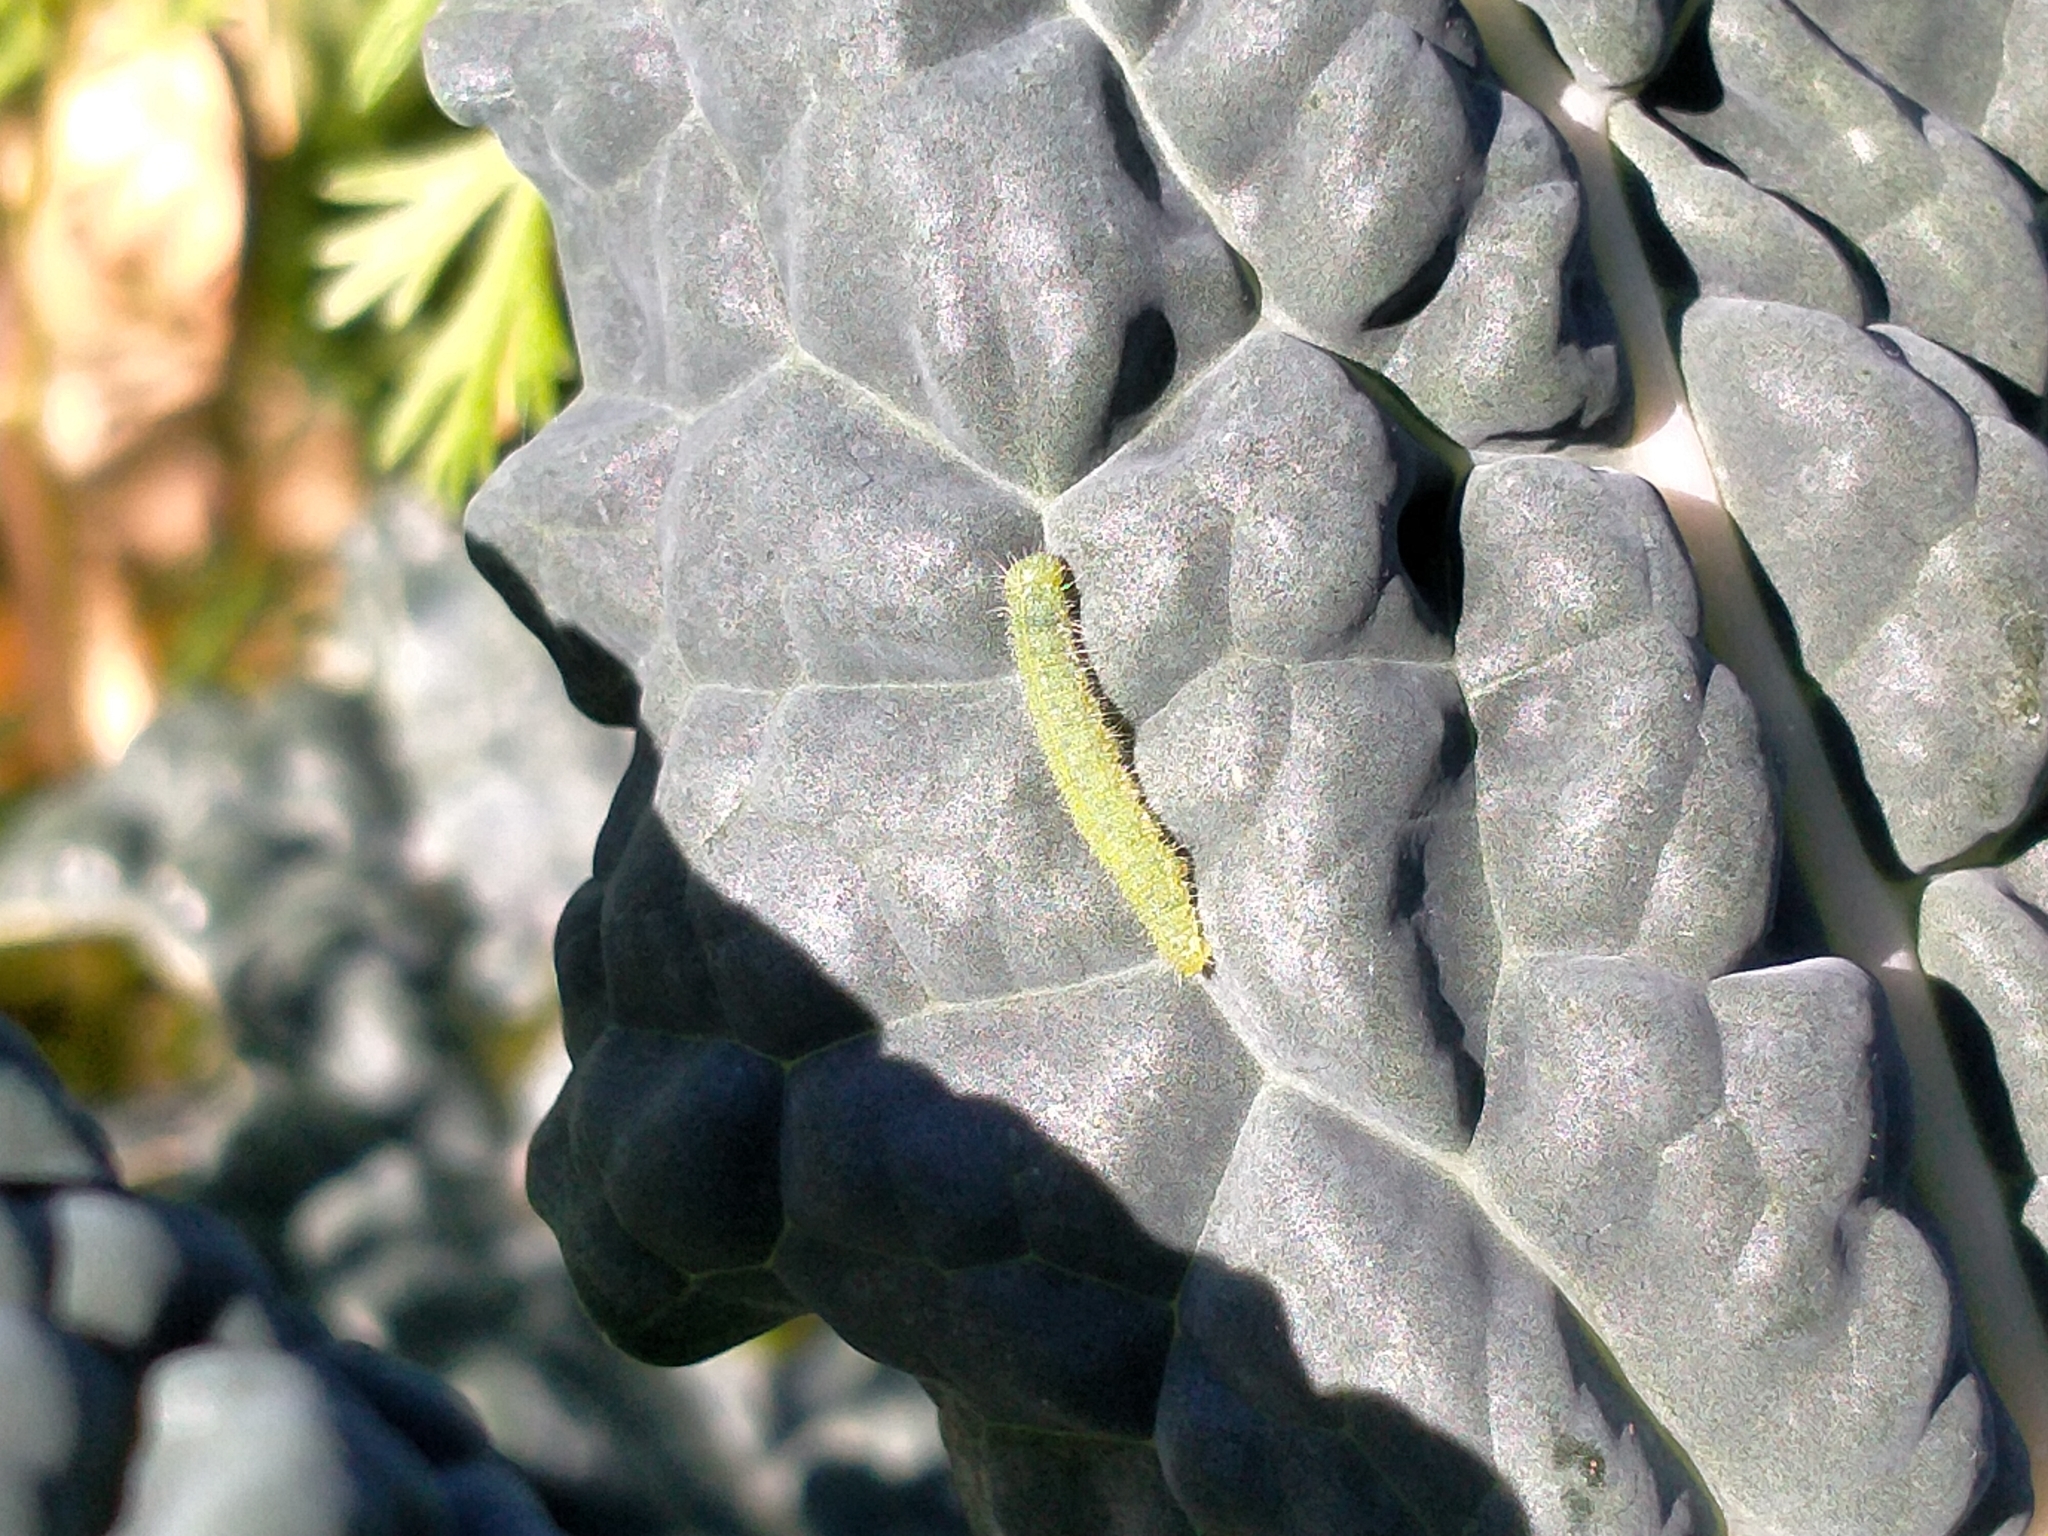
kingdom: Animalia
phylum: Arthropoda
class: Insecta
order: Lepidoptera
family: Pieridae
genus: Pieris
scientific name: Pieris rapae
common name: Small white
